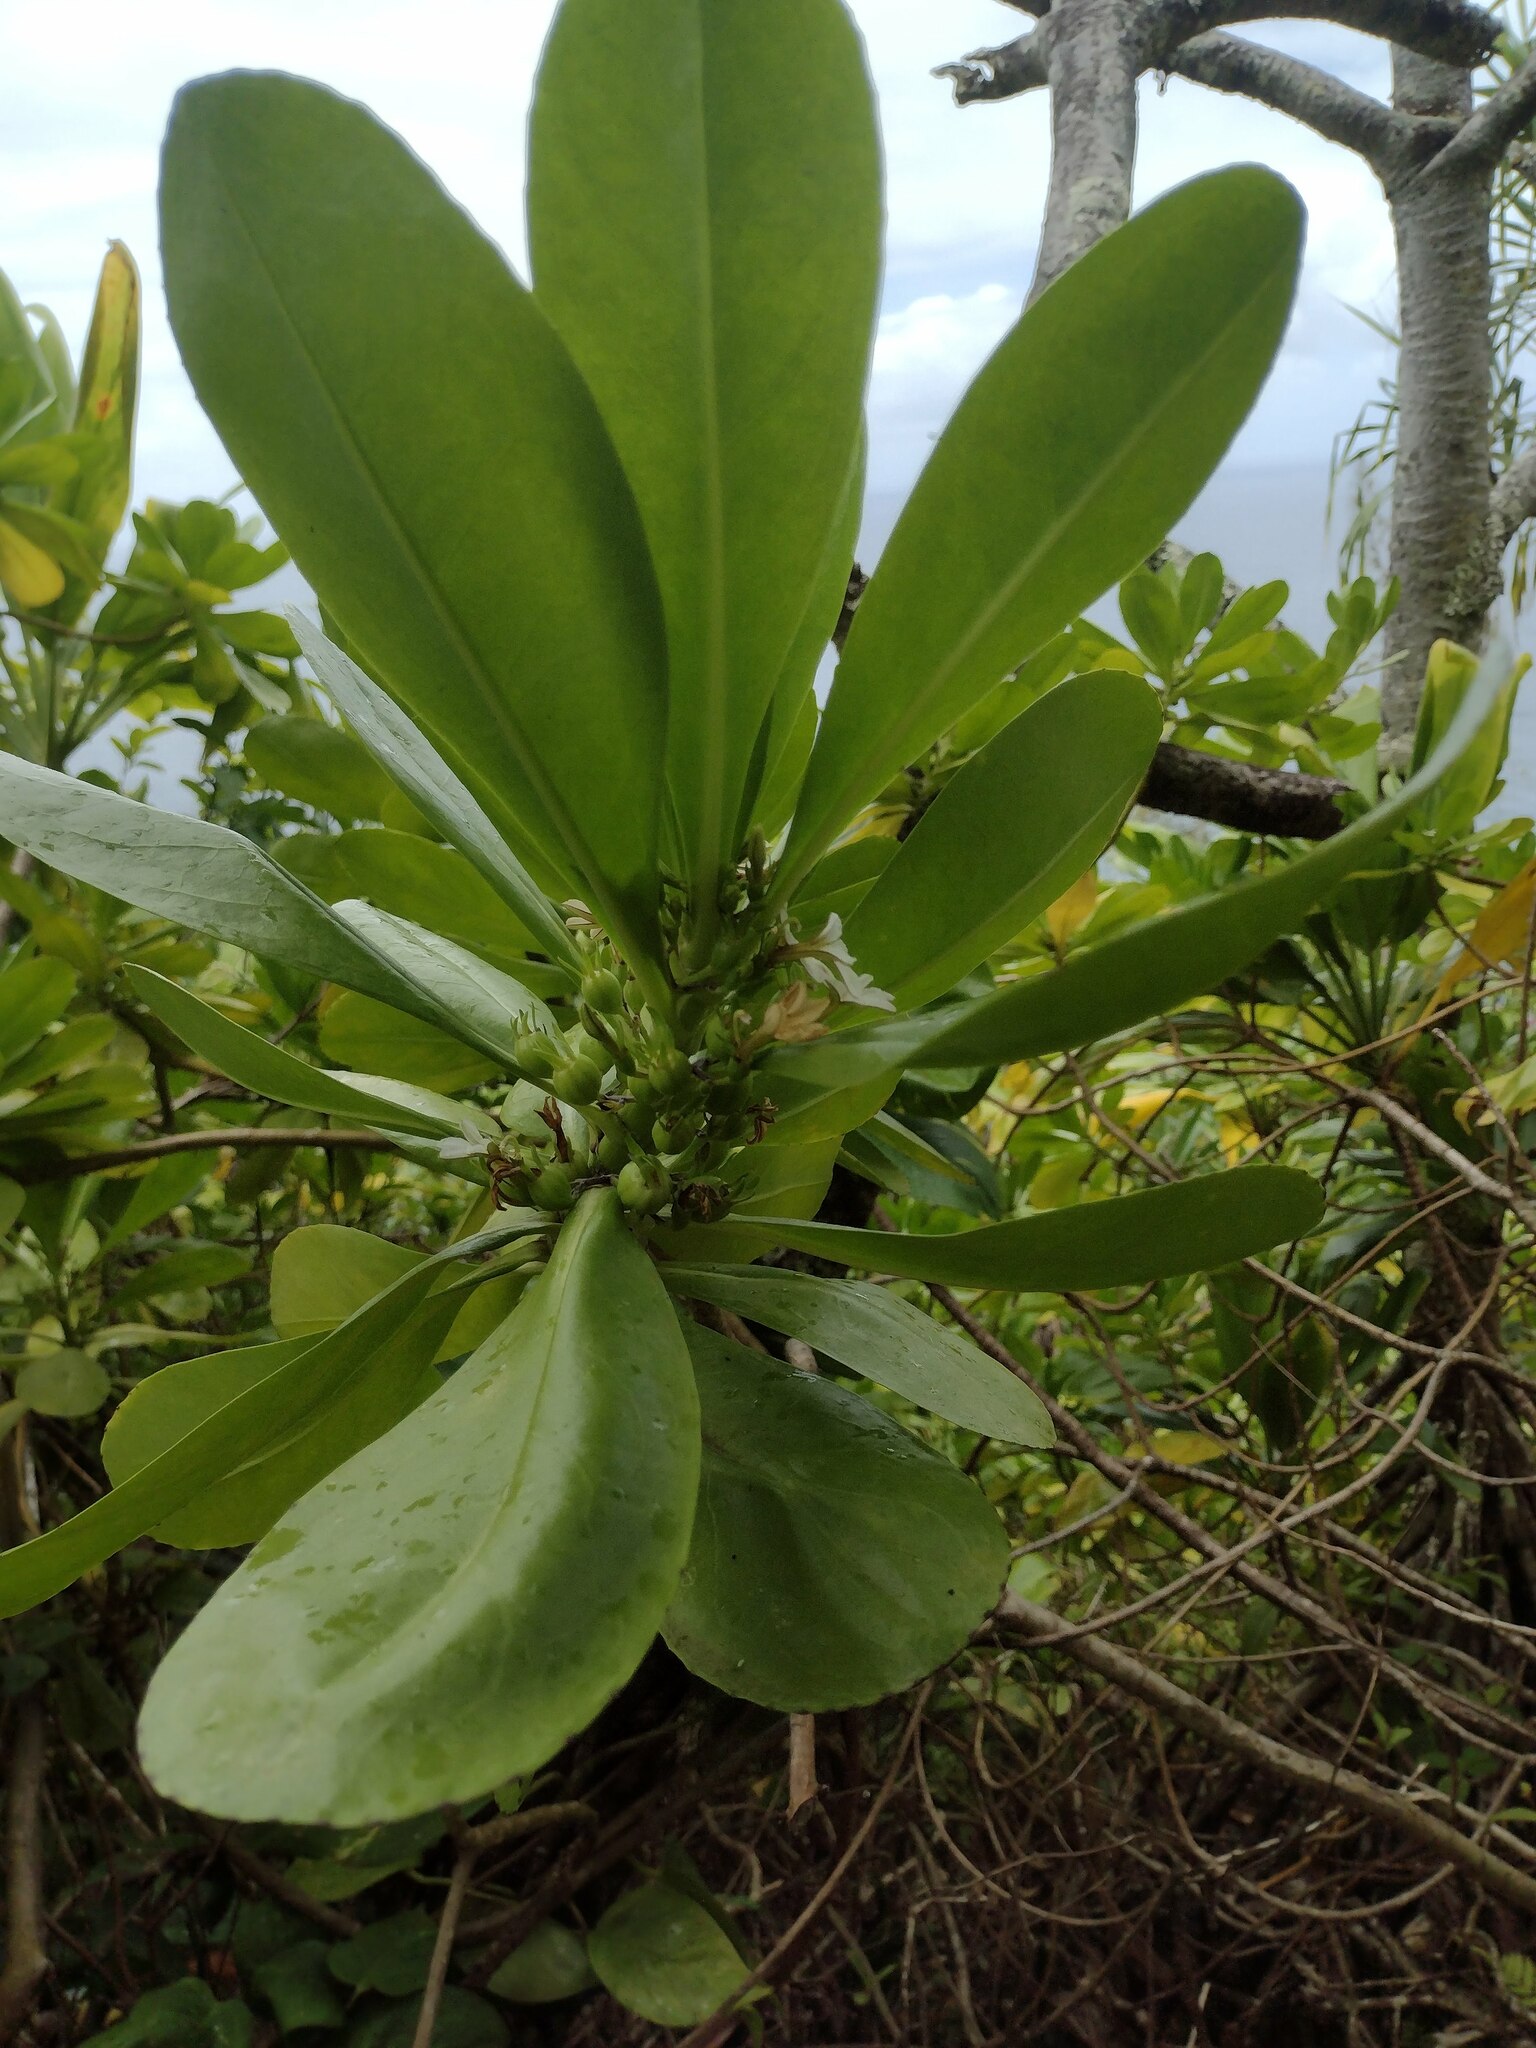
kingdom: Plantae
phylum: Tracheophyta
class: Magnoliopsida
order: Asterales
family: Goodeniaceae
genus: Scaevola
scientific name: Scaevola taccada
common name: Sea lettucetree
